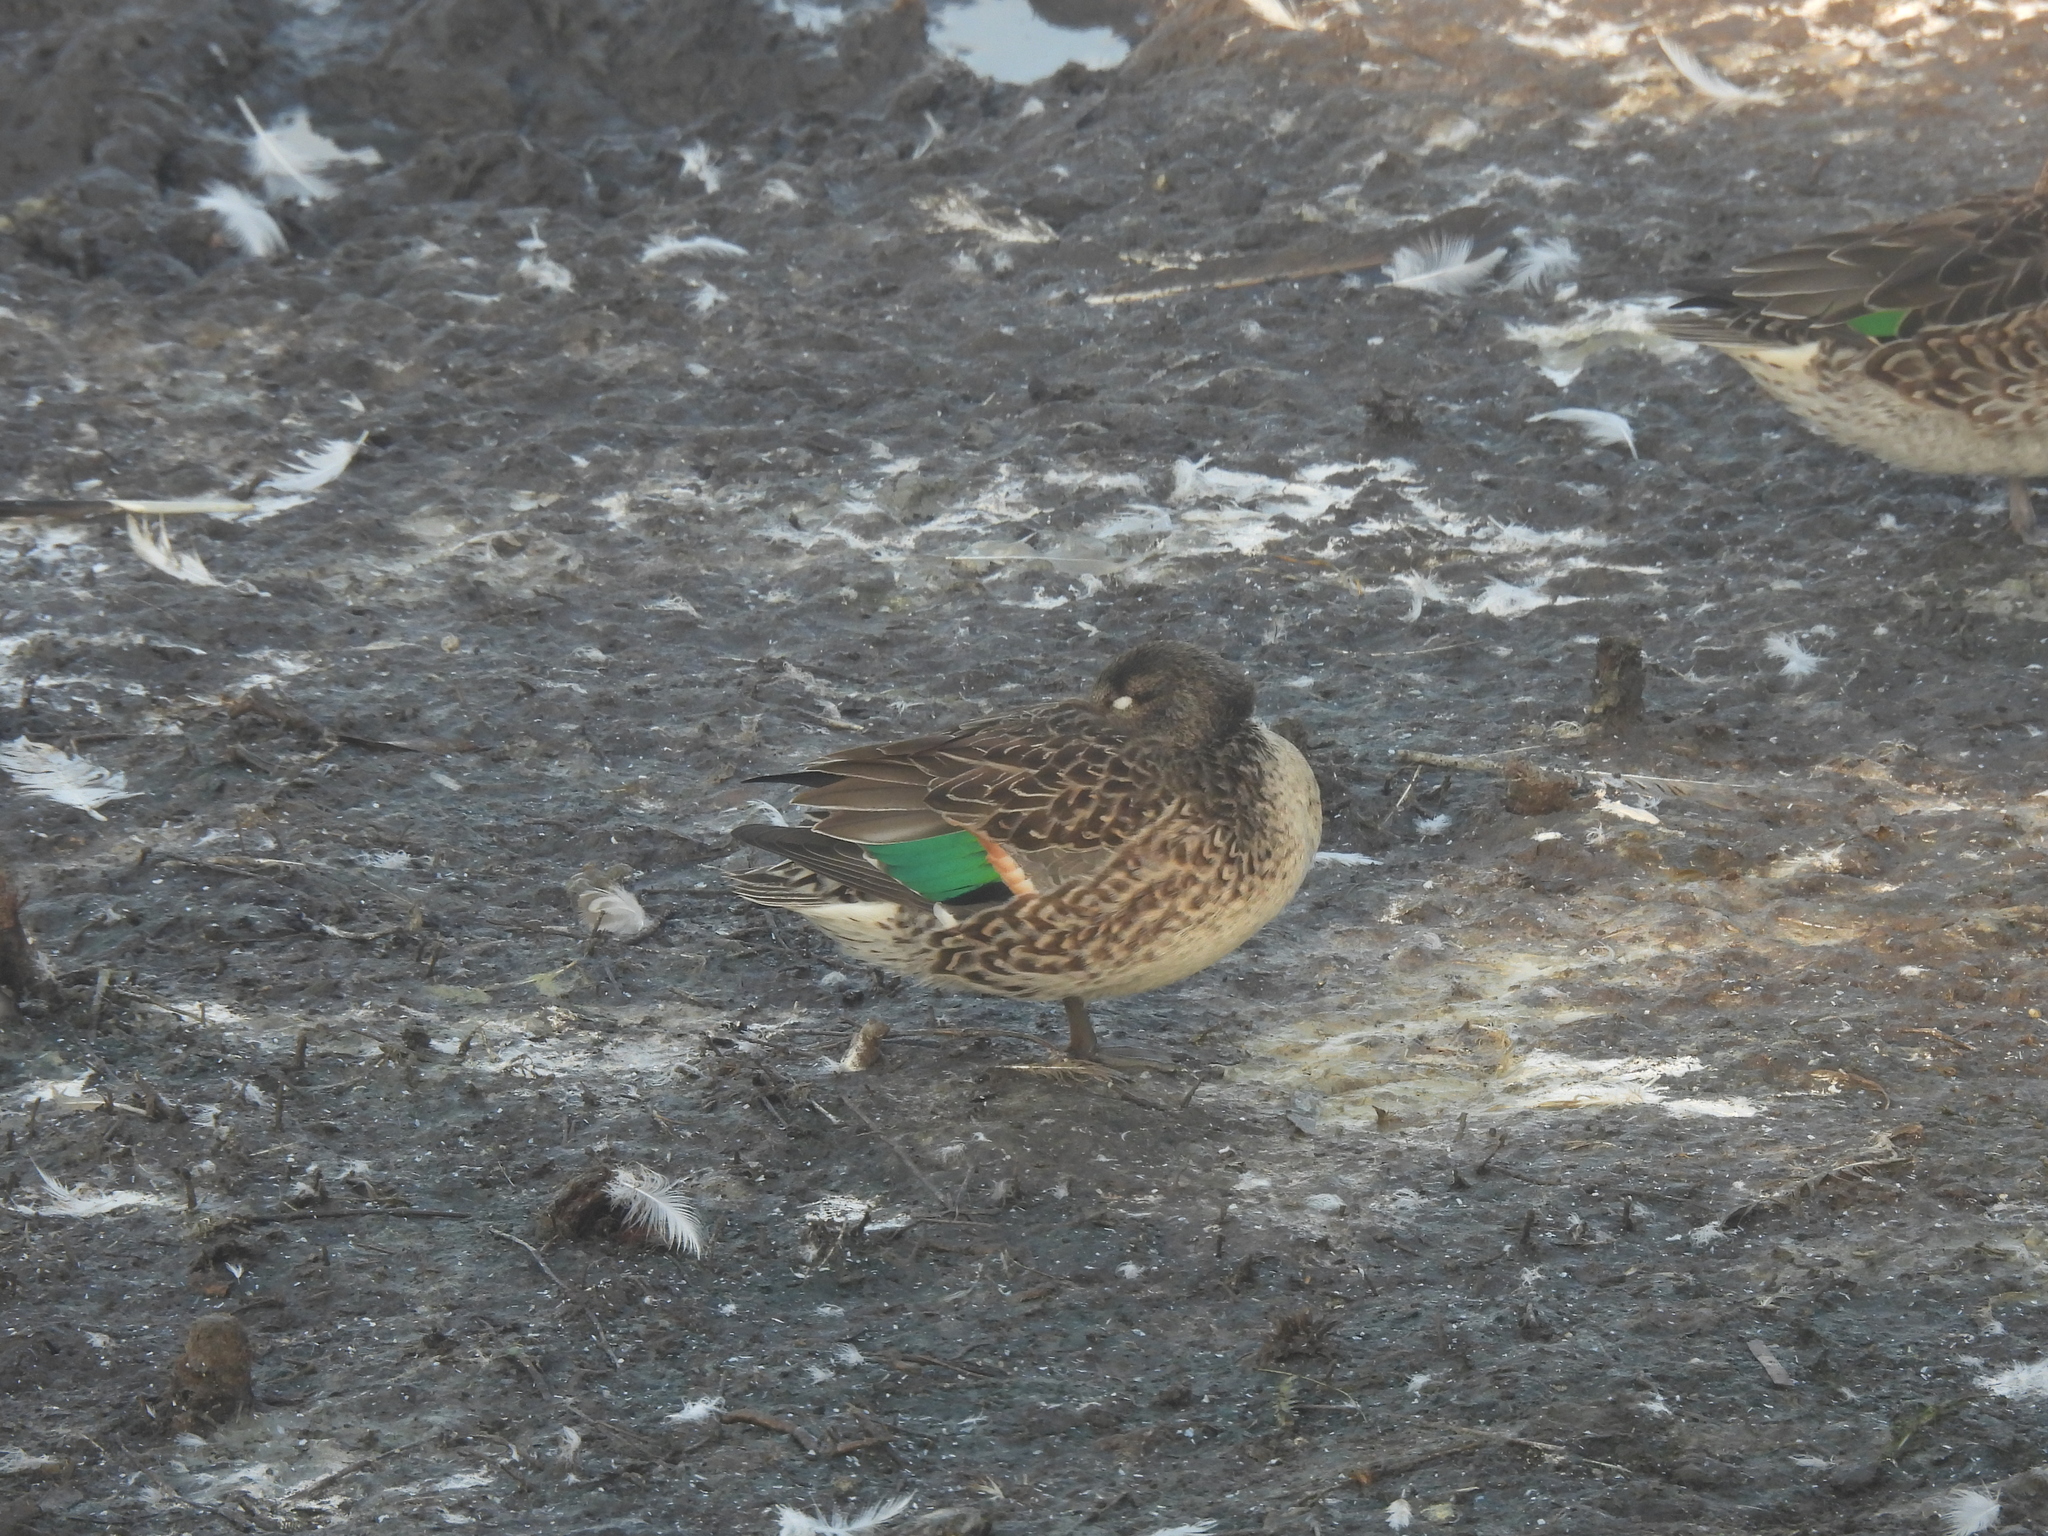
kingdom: Animalia
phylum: Chordata
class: Aves
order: Anseriformes
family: Anatidae
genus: Anas
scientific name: Anas crecca
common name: Eurasian teal
